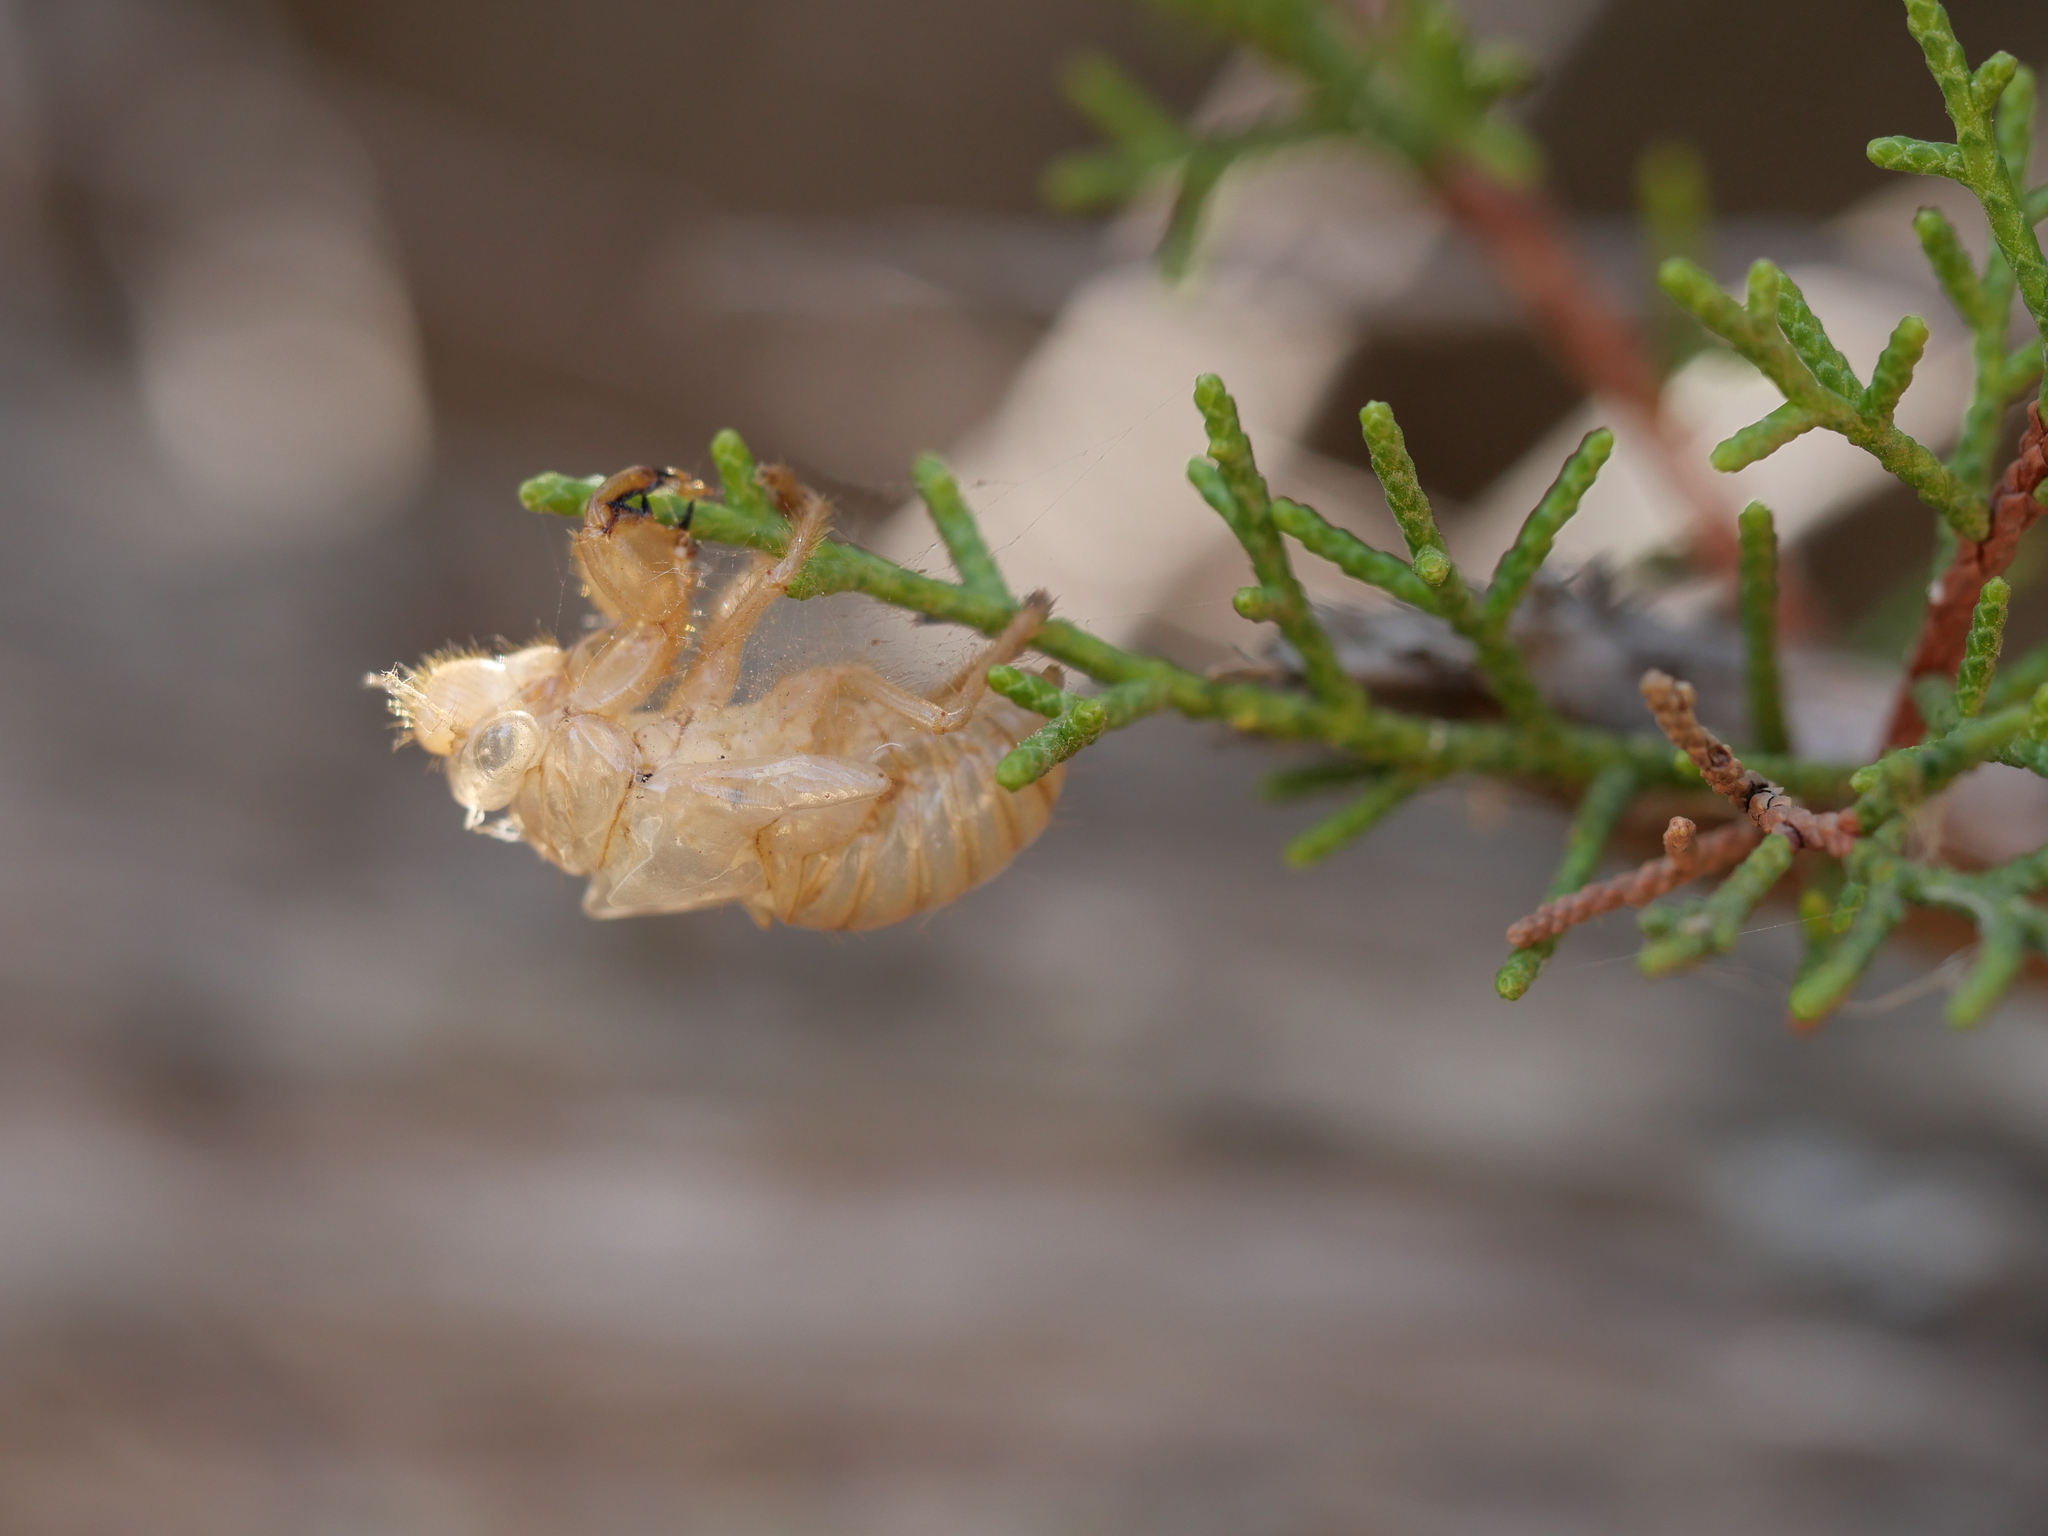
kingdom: Animalia
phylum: Arthropoda
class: Insecta
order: Hemiptera
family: Cicadidae
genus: Cicada
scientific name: Cicada orni
